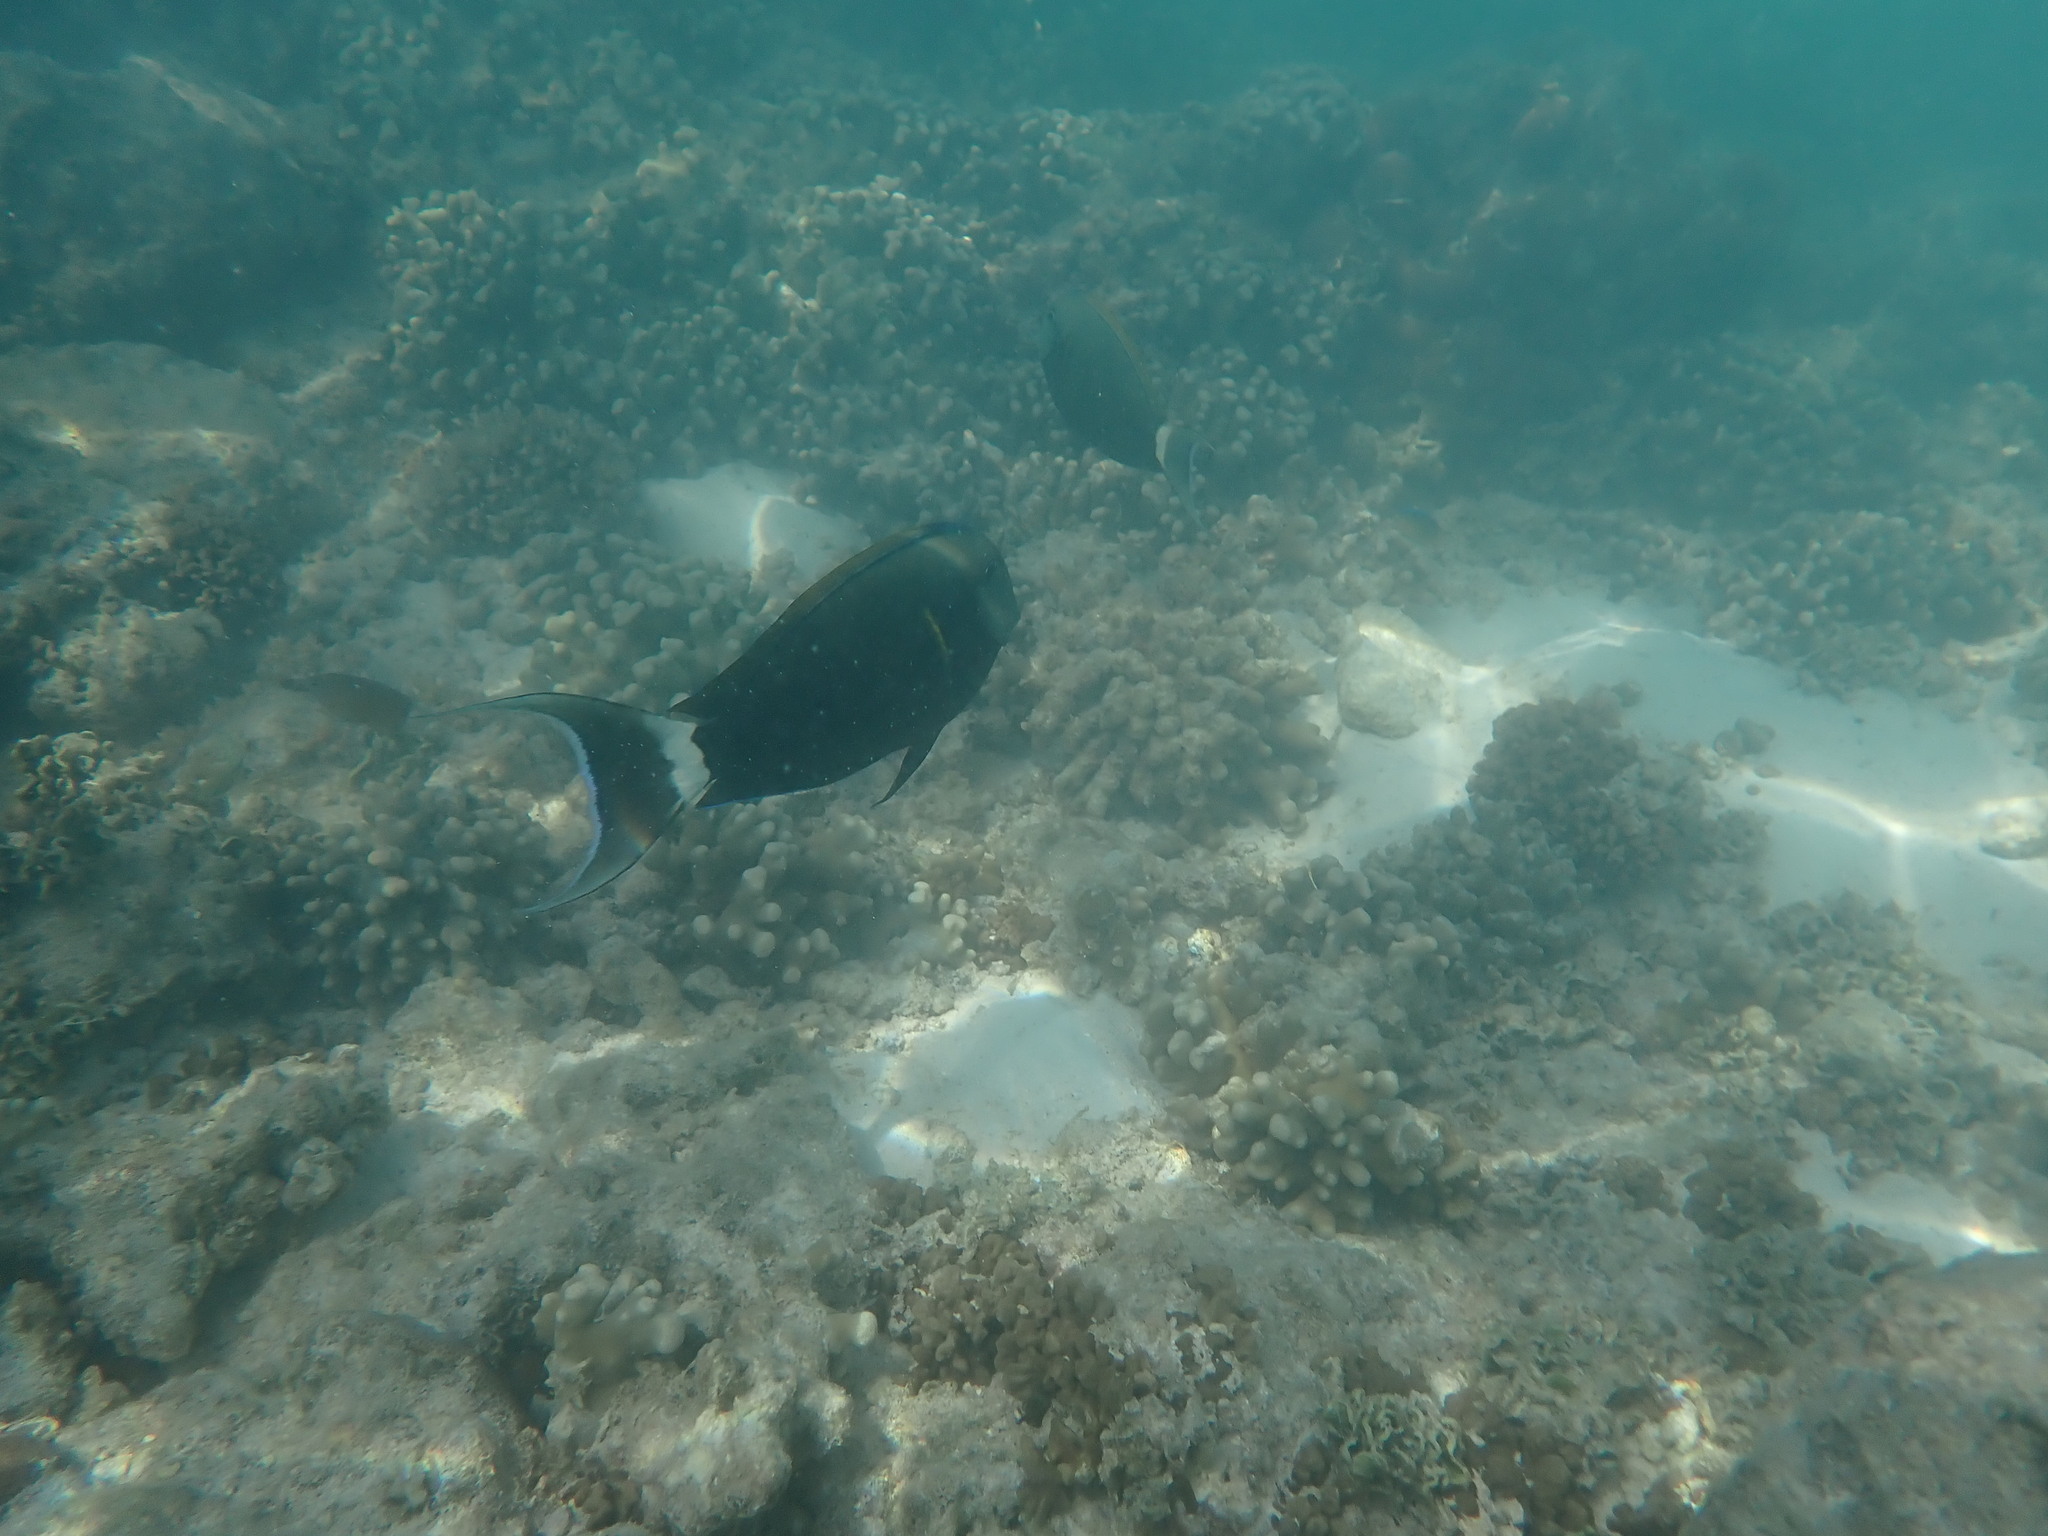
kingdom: Animalia
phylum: Chordata
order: Perciformes
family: Acanthuridae
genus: Acanthurus
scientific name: Acanthurus nigricauda
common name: Black-barred surgeonfish
